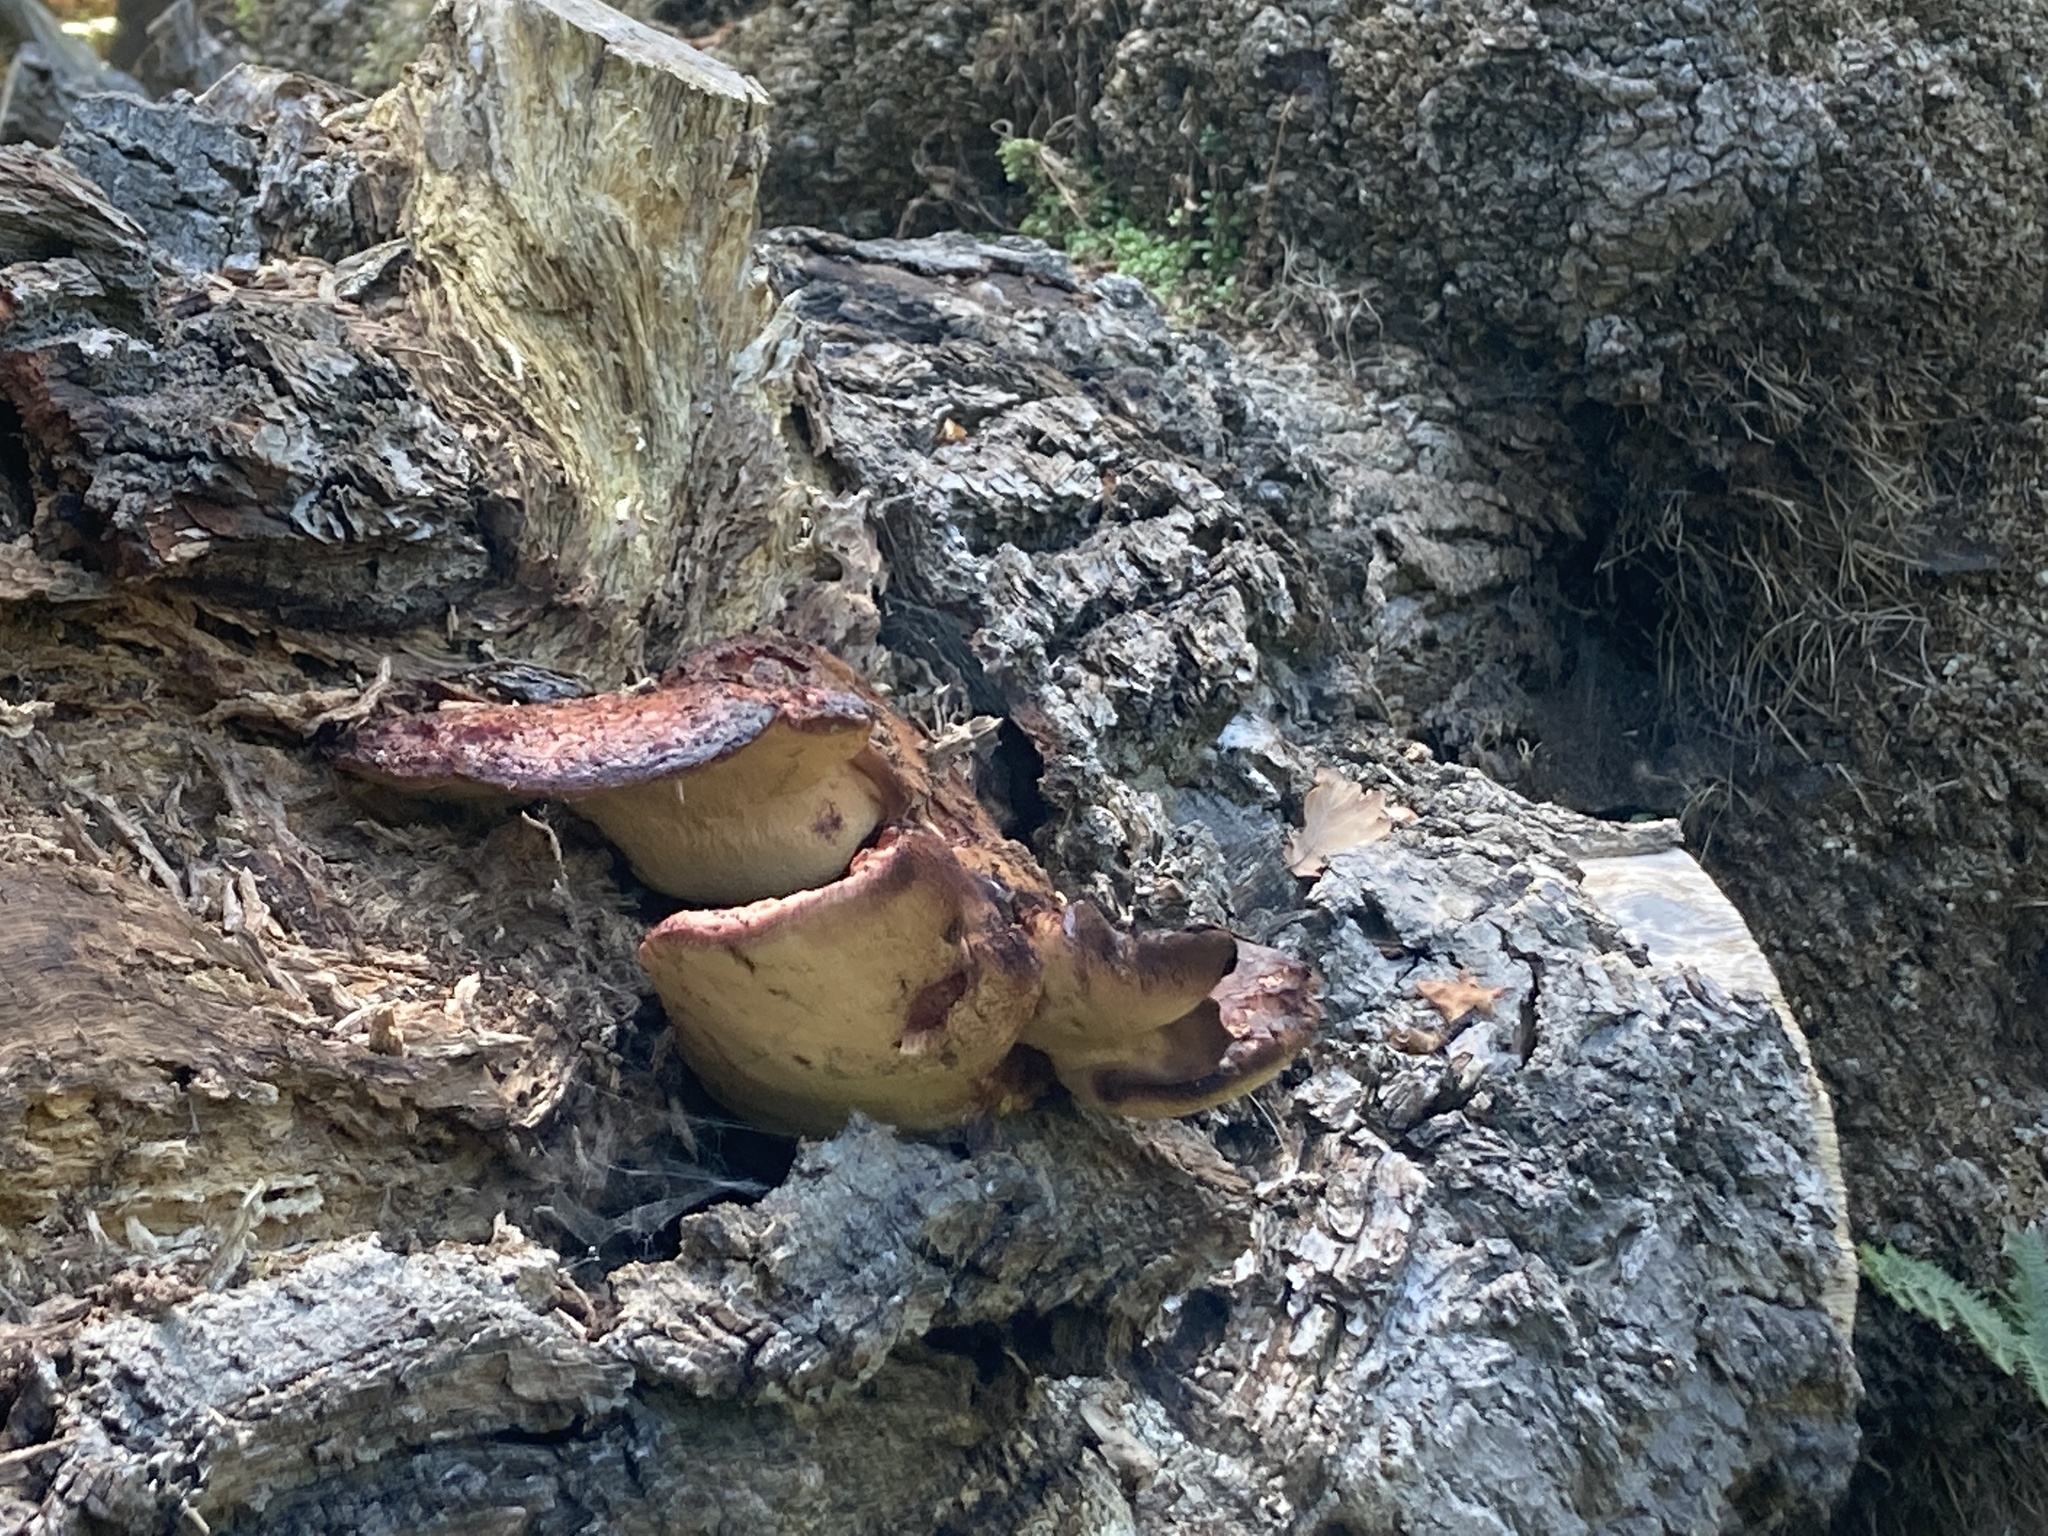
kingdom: Fungi
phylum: Basidiomycota
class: Agaricomycetes
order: Agaricales
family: Fistulinaceae
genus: Fistulina
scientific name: Fistulina hepatica
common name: Beef-steak fungus
